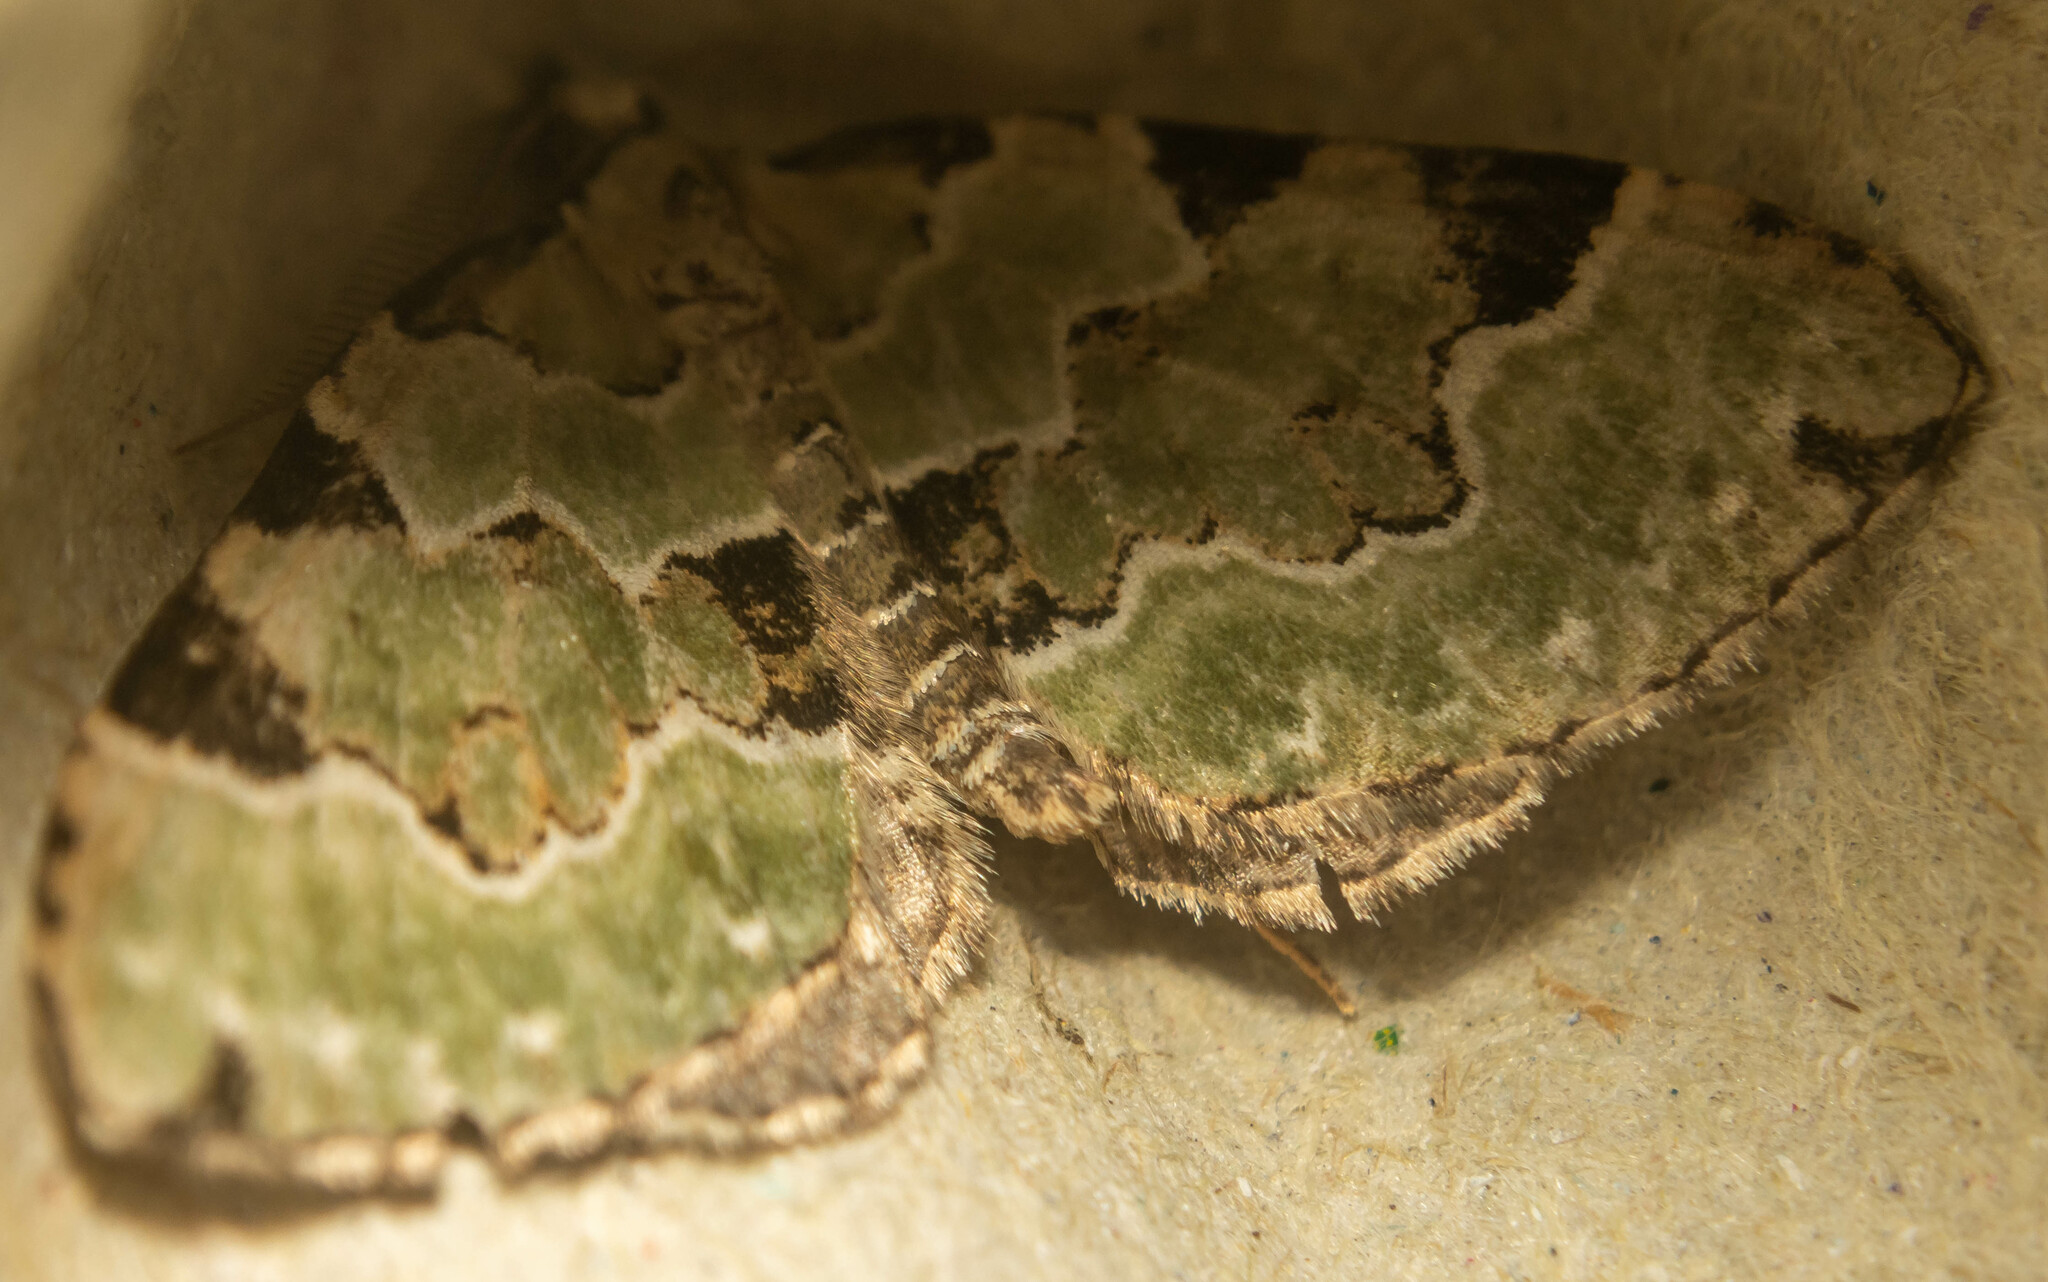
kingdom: Animalia
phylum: Arthropoda
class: Insecta
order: Lepidoptera
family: Geometridae
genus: Colostygia
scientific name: Colostygia pectinataria
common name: Green carpet
